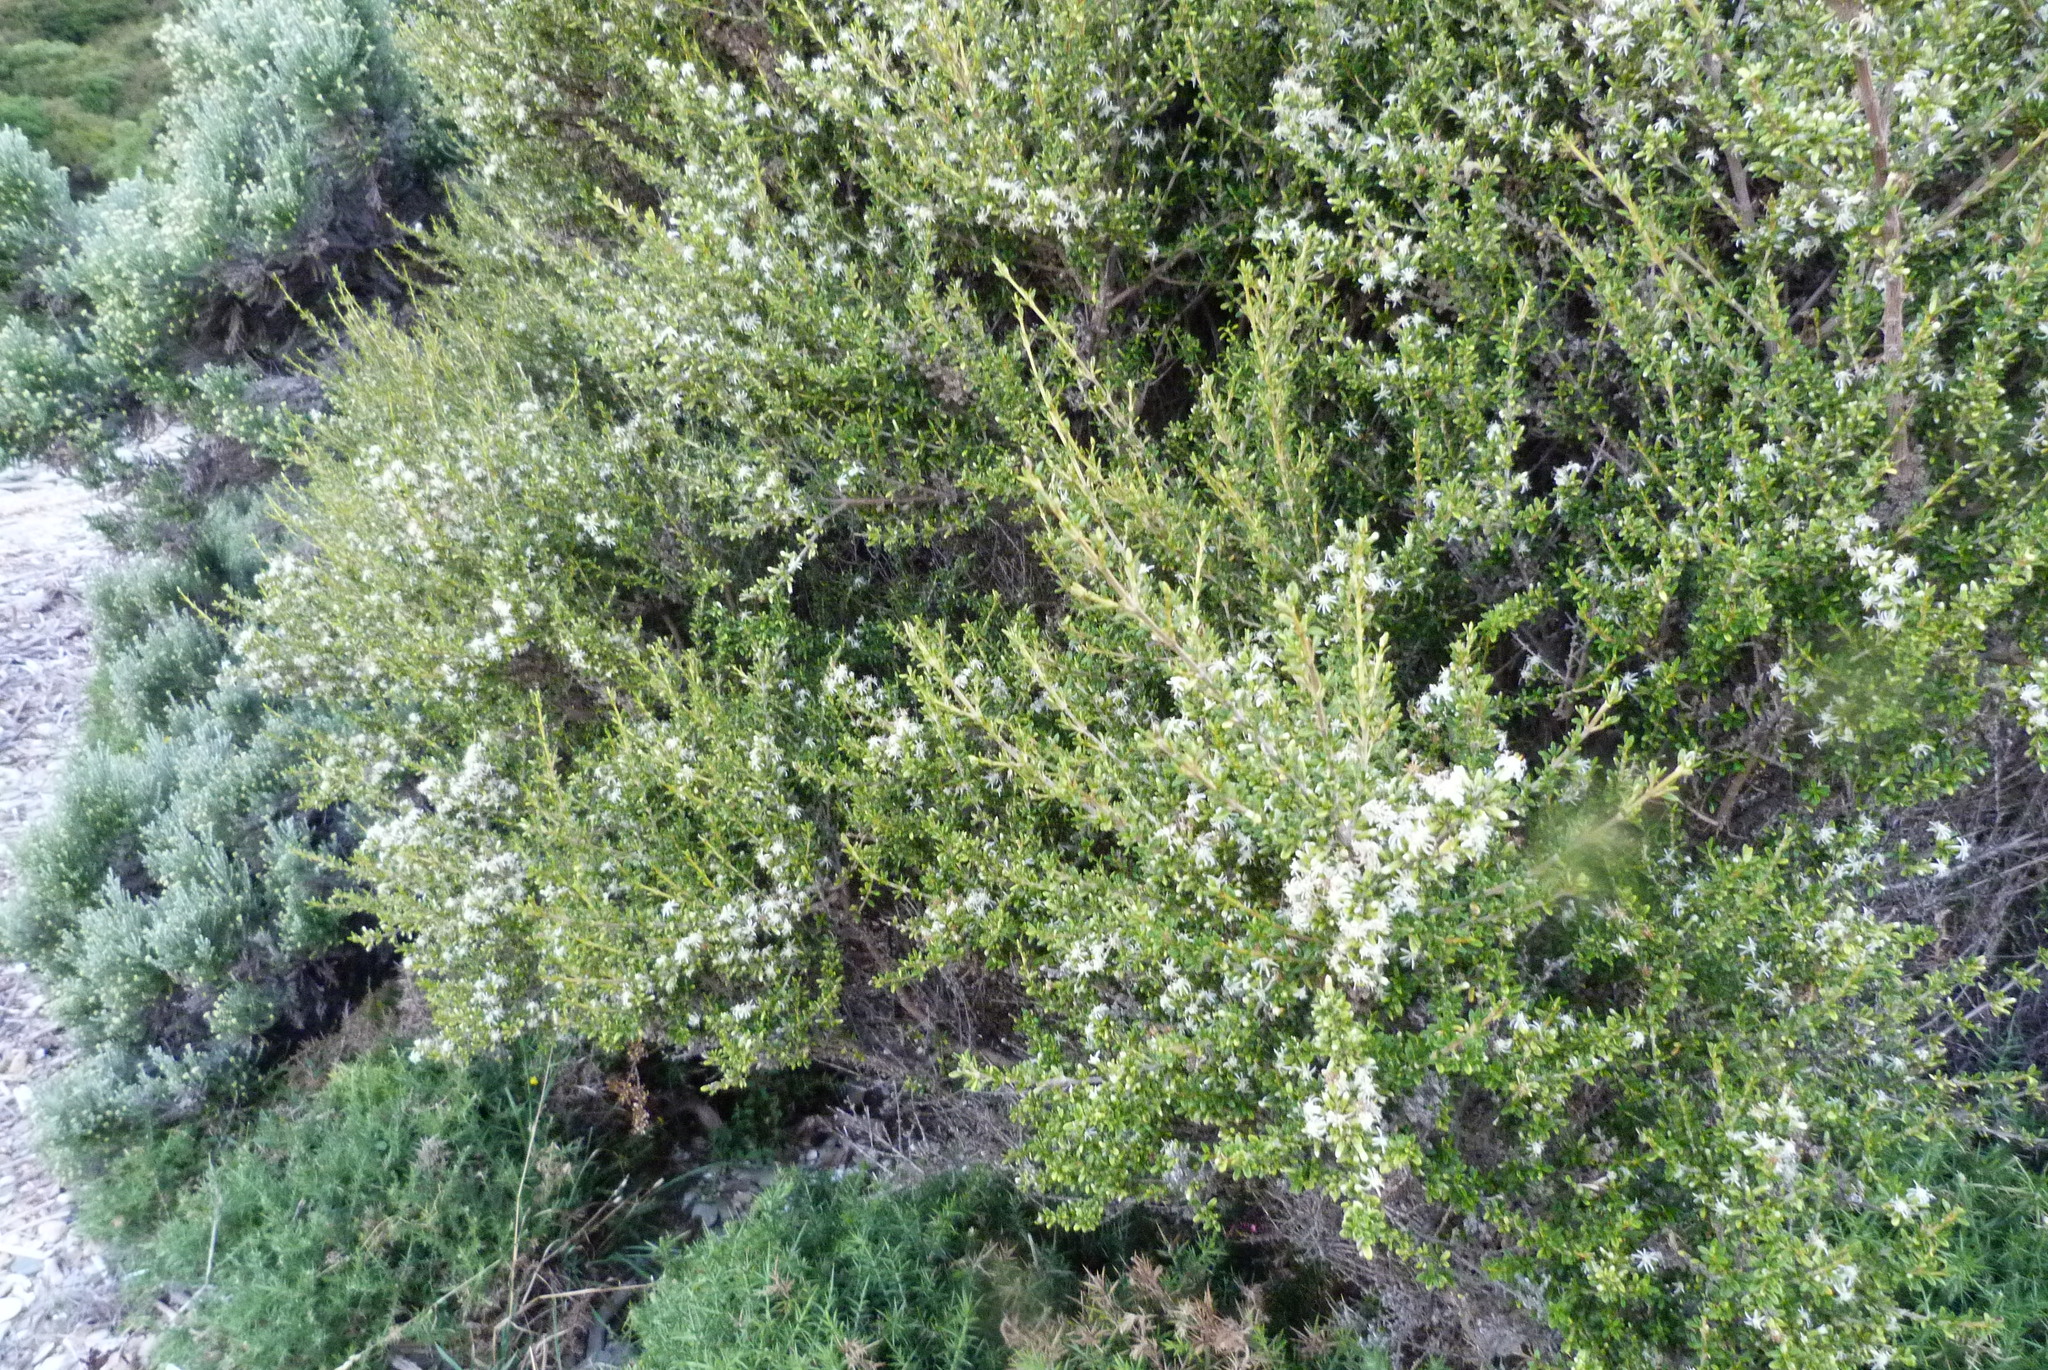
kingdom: Plantae
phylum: Tracheophyta
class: Magnoliopsida
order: Asterales
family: Asteraceae
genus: Olearia
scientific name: Olearia solandri
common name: Coastal daisybush
